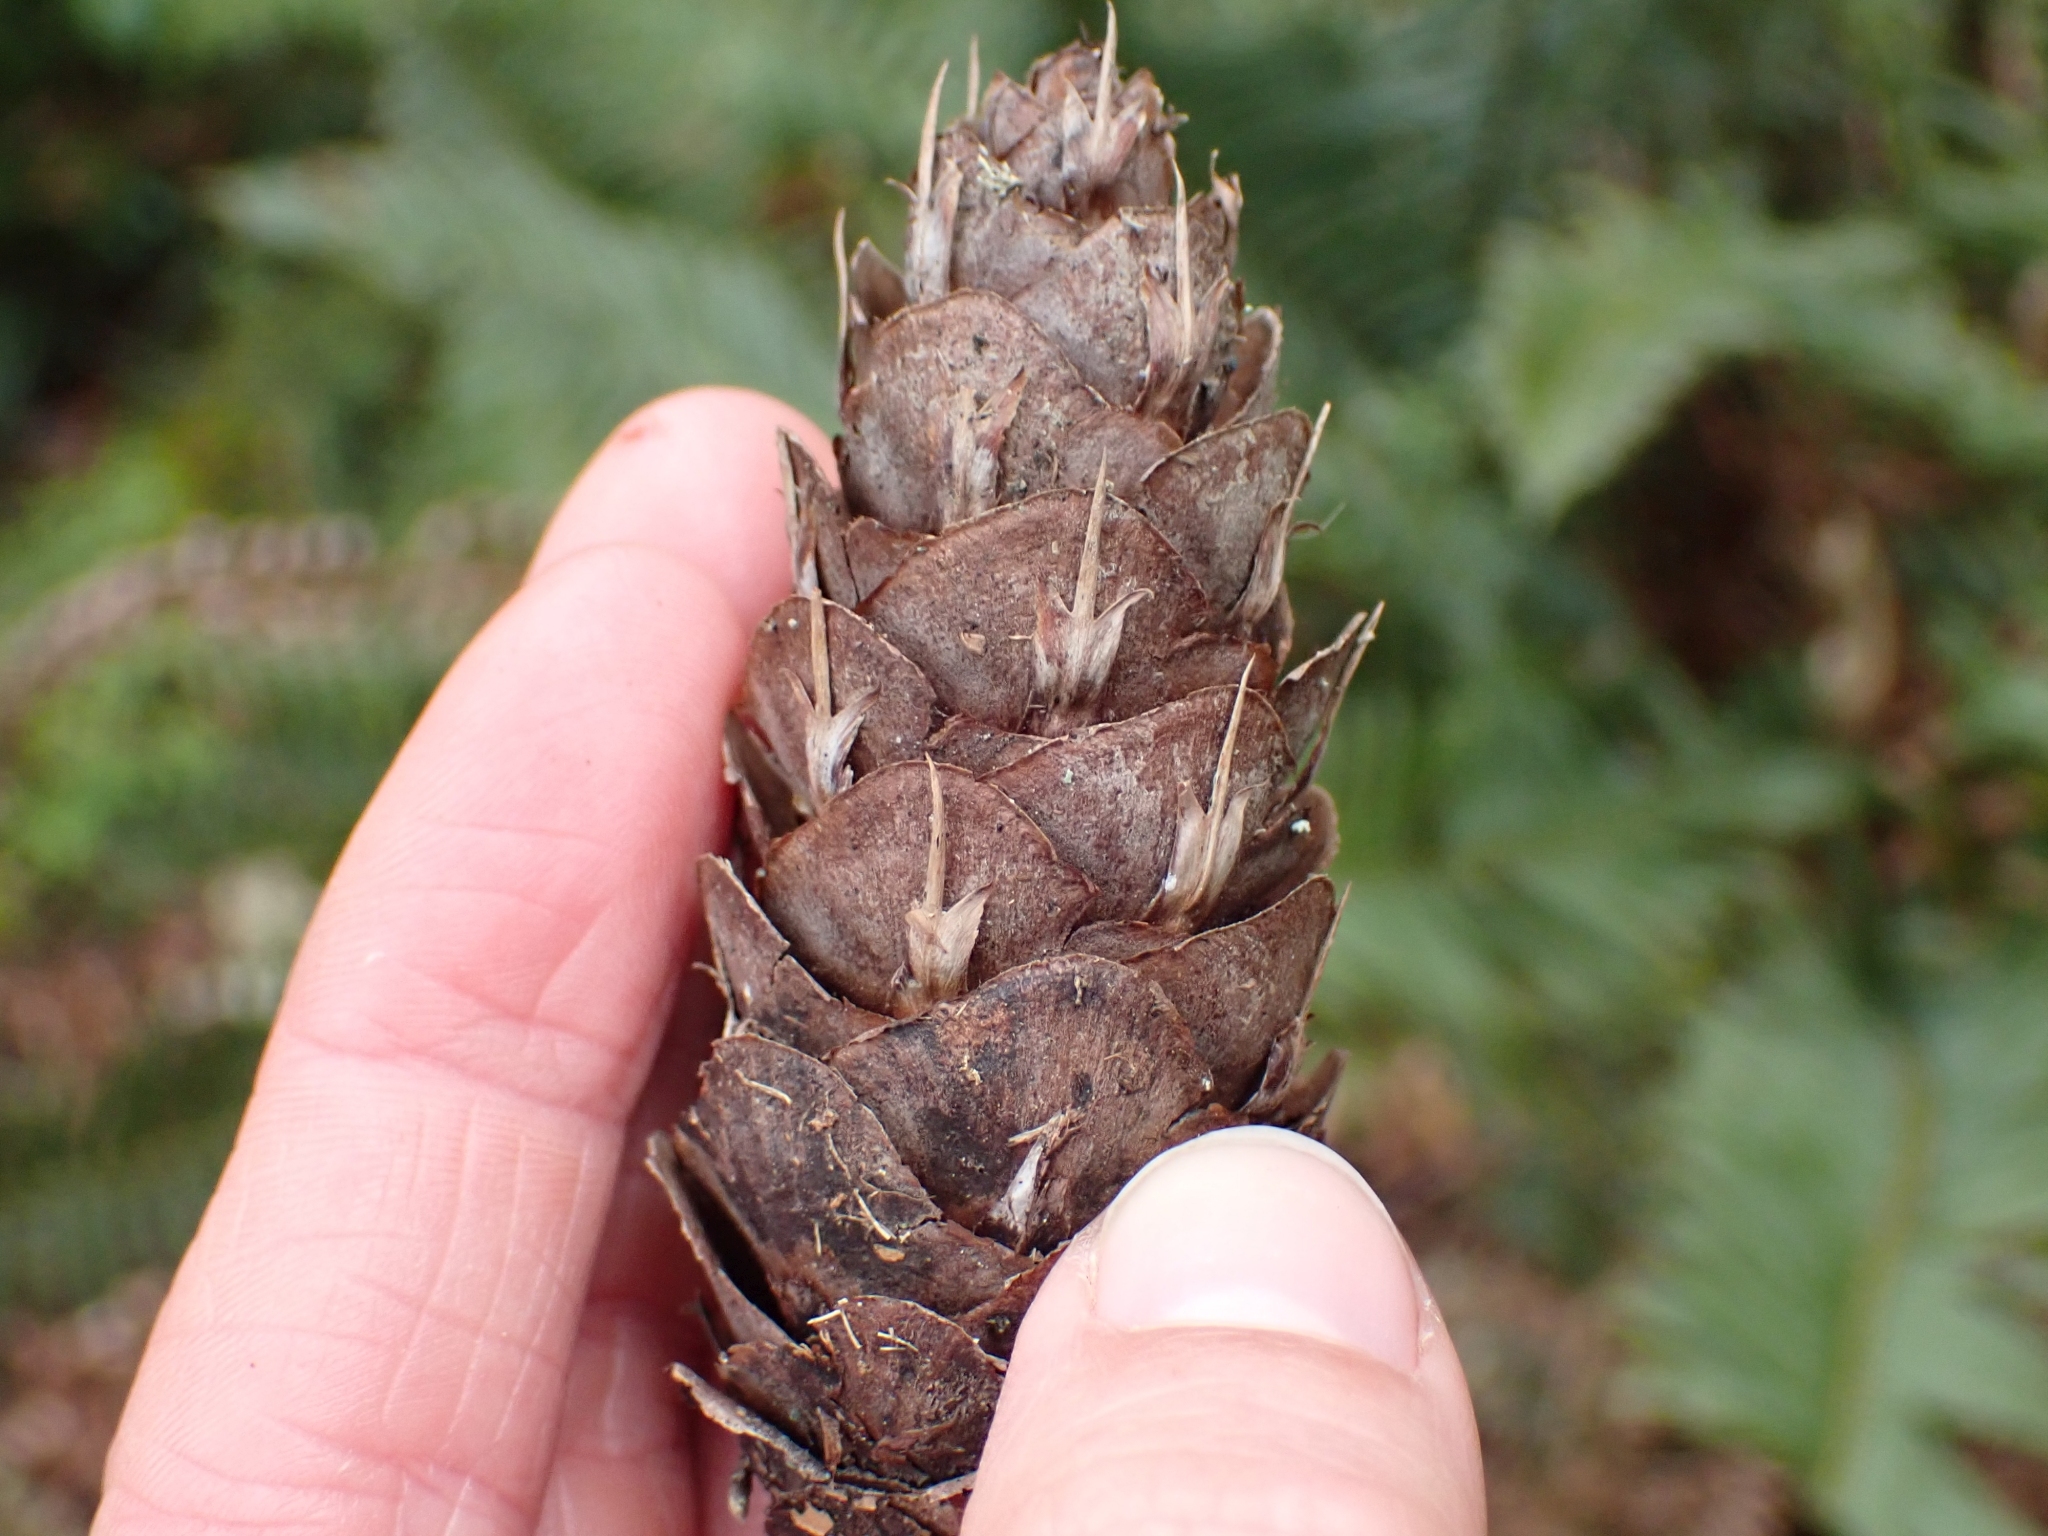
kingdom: Plantae
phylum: Tracheophyta
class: Pinopsida
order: Pinales
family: Pinaceae
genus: Pseudotsuga
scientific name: Pseudotsuga menziesii
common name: Douglas fir
